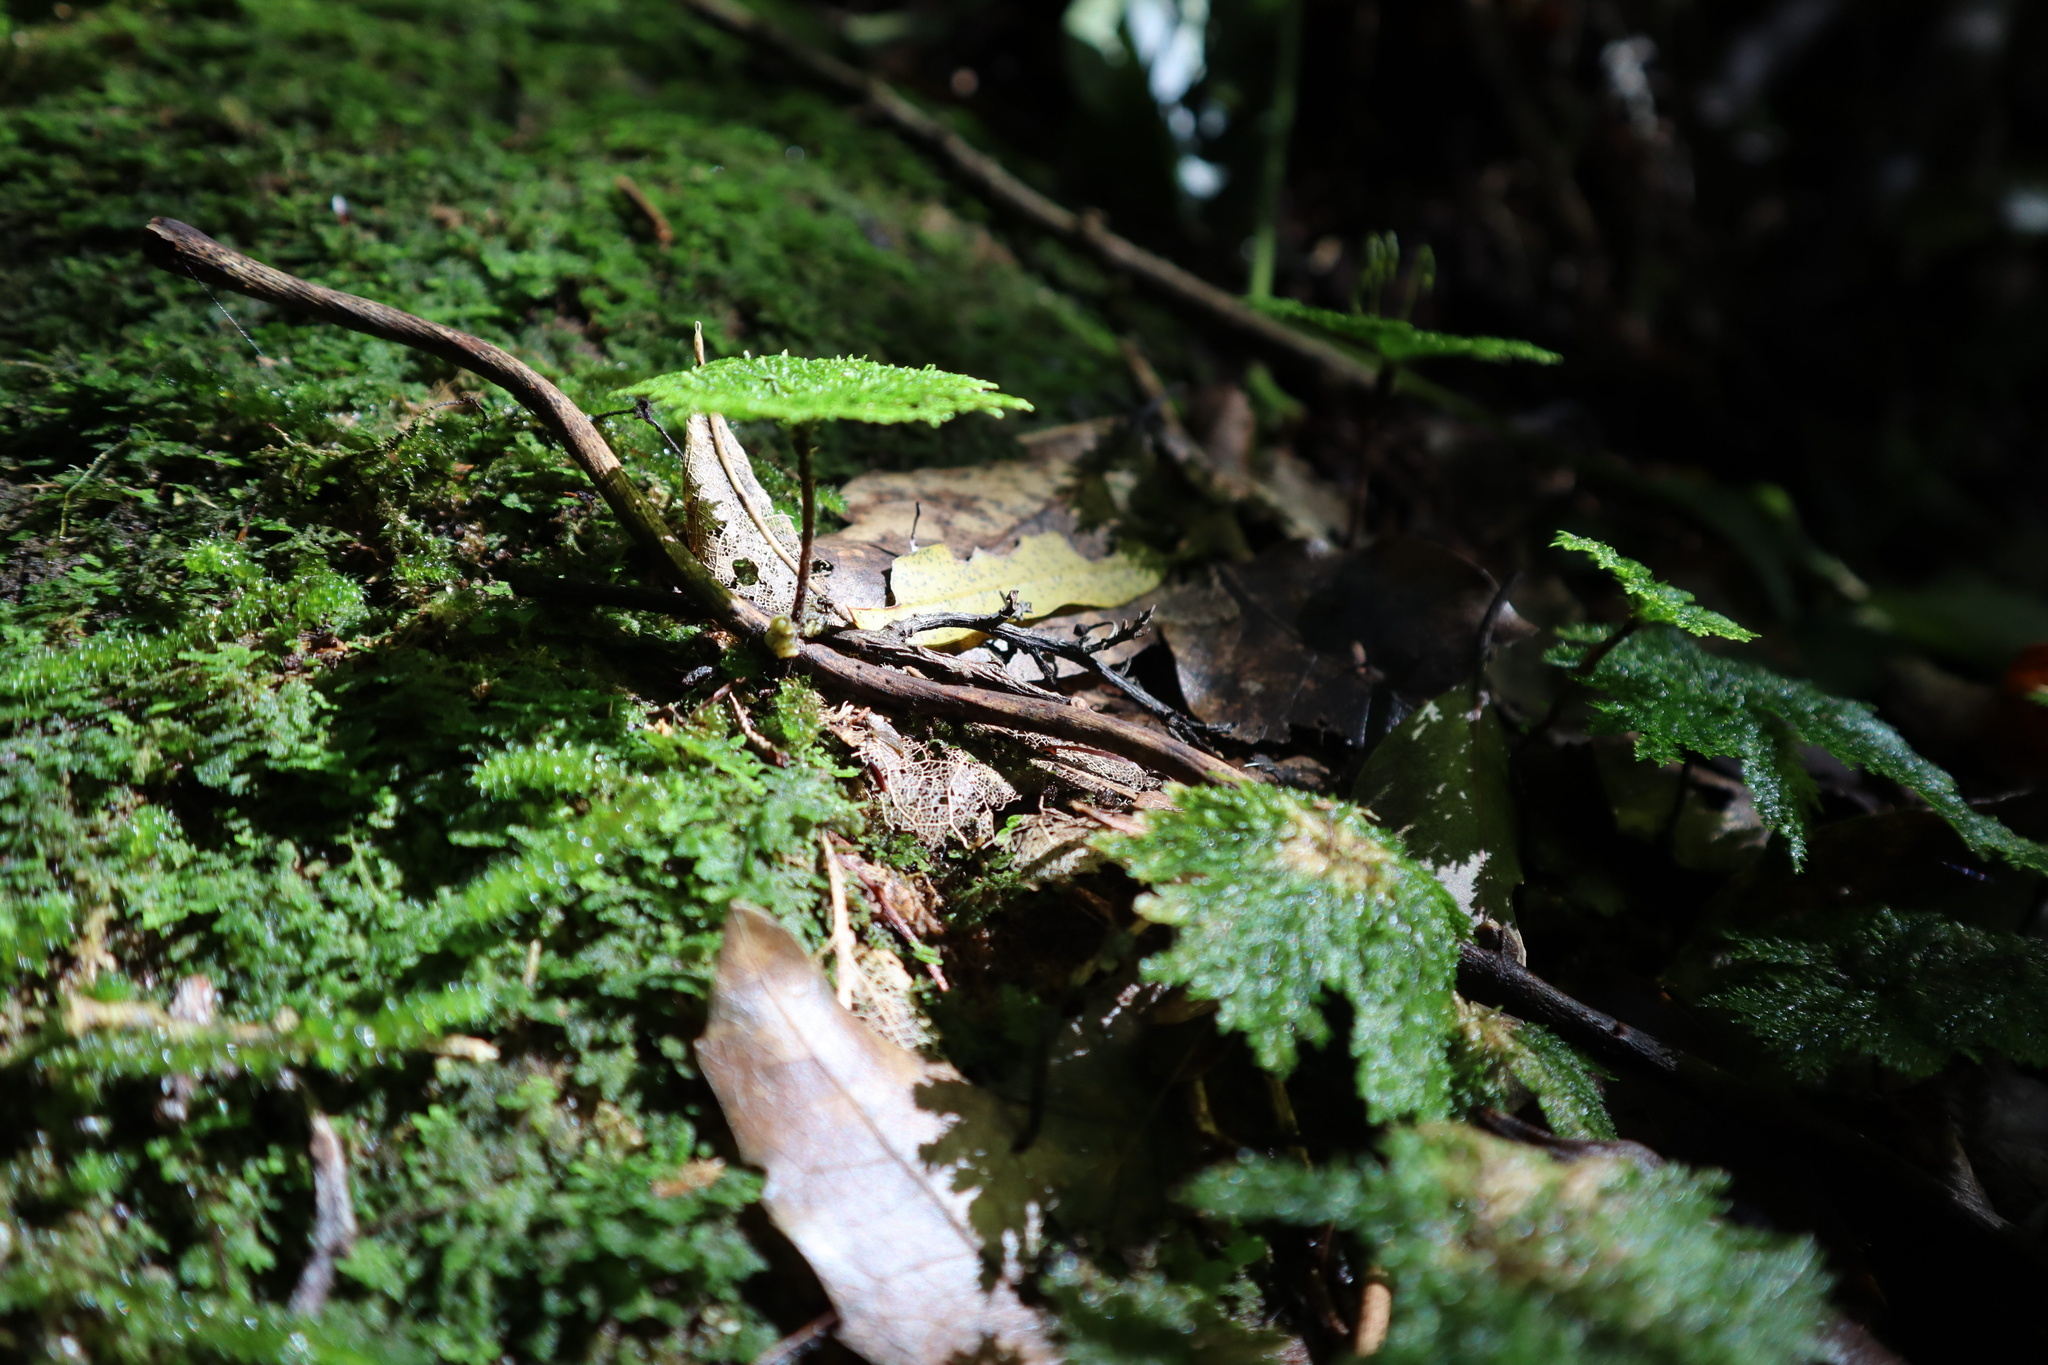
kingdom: Plantae
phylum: Bryophyta
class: Bryopsida
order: Hypopterygiales
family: Hypopterygiaceae
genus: Dendrohypopterygium
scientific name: Dendrohypopterygium filiculiforme
